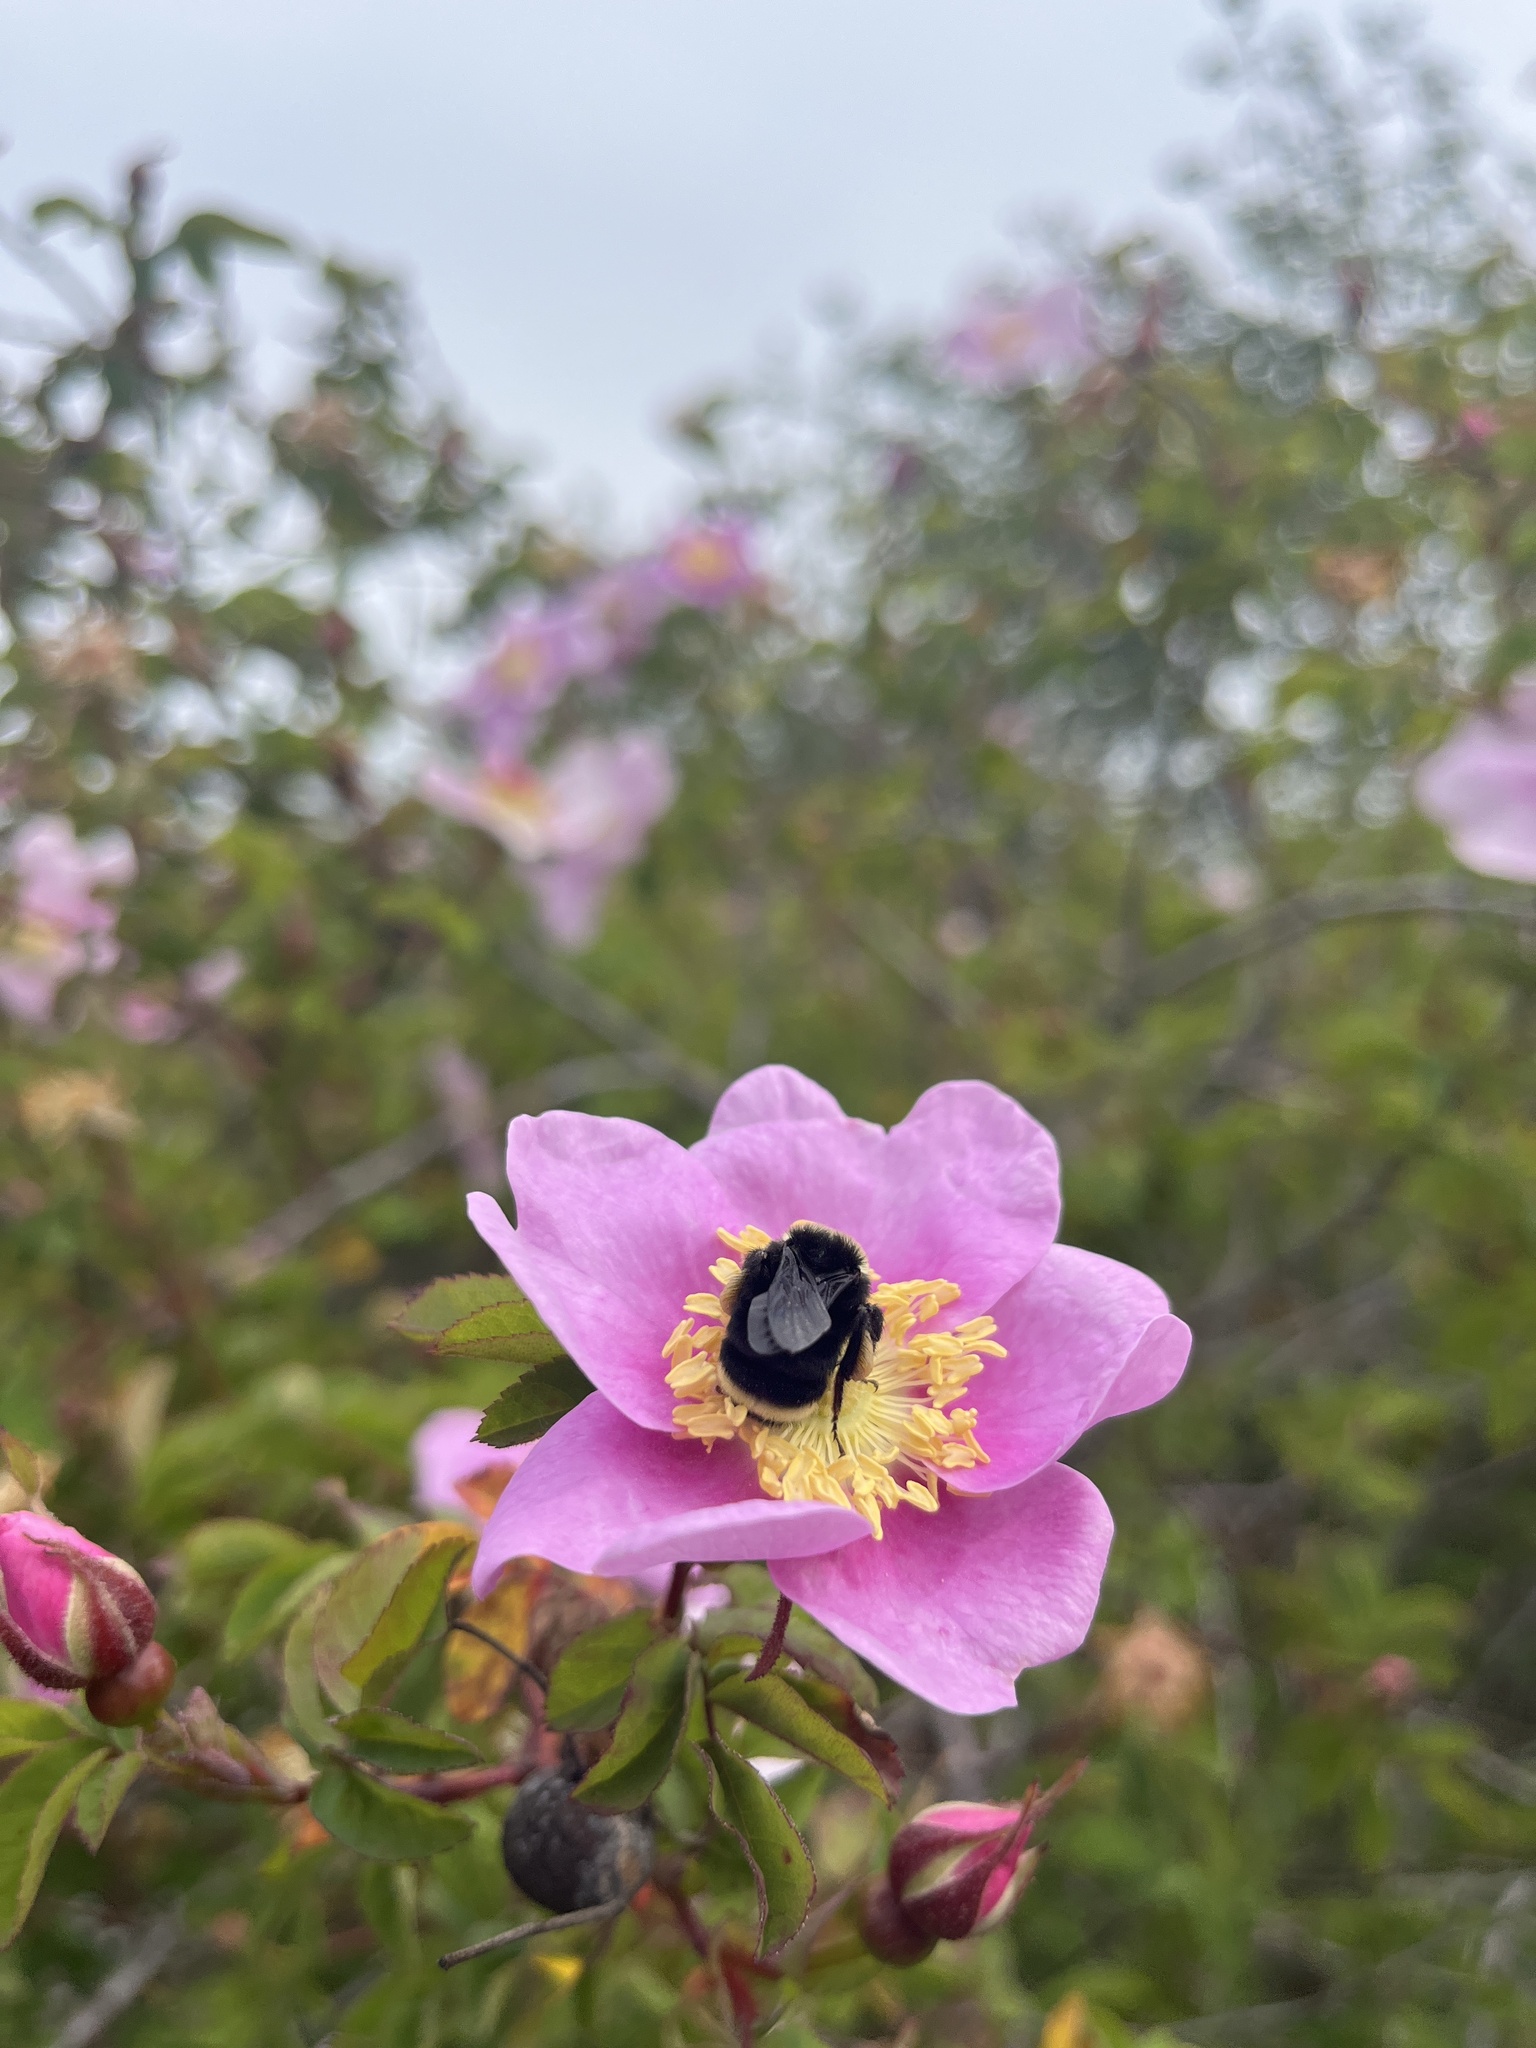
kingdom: Animalia
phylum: Arthropoda
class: Insecta
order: Hymenoptera
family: Apidae
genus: Bombus
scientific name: Bombus vosnesenskii
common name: Vosnesensky bumble bee
